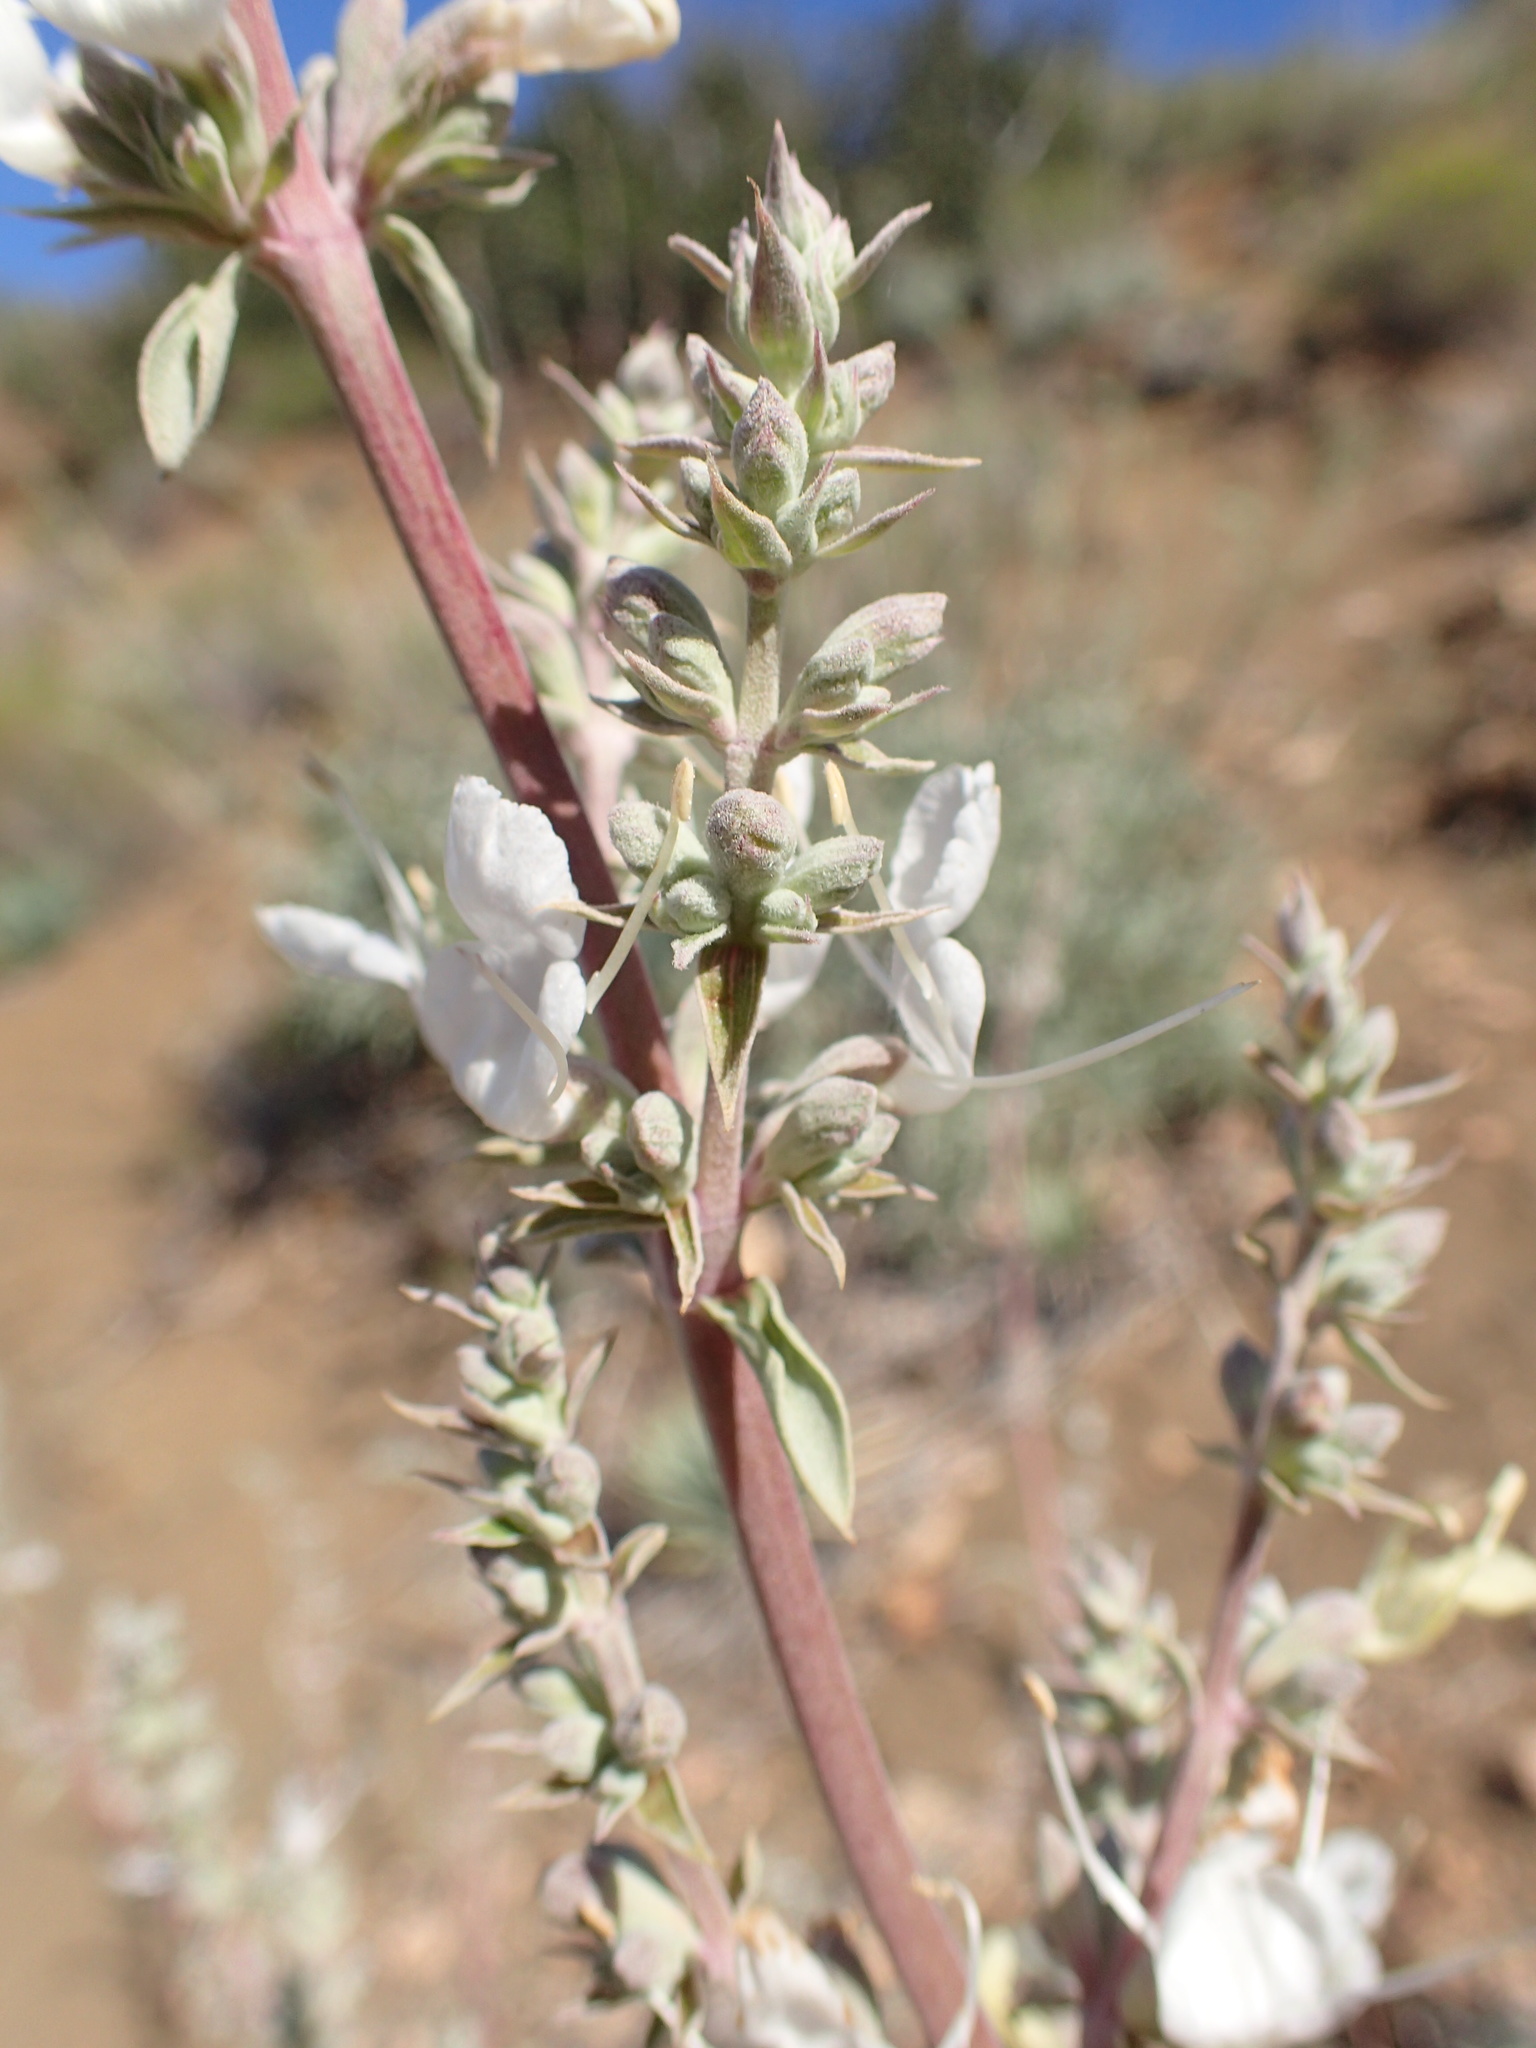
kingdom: Plantae
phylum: Tracheophyta
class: Magnoliopsida
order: Lamiales
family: Lamiaceae
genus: Salvia
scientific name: Salvia apiana
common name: White sage
